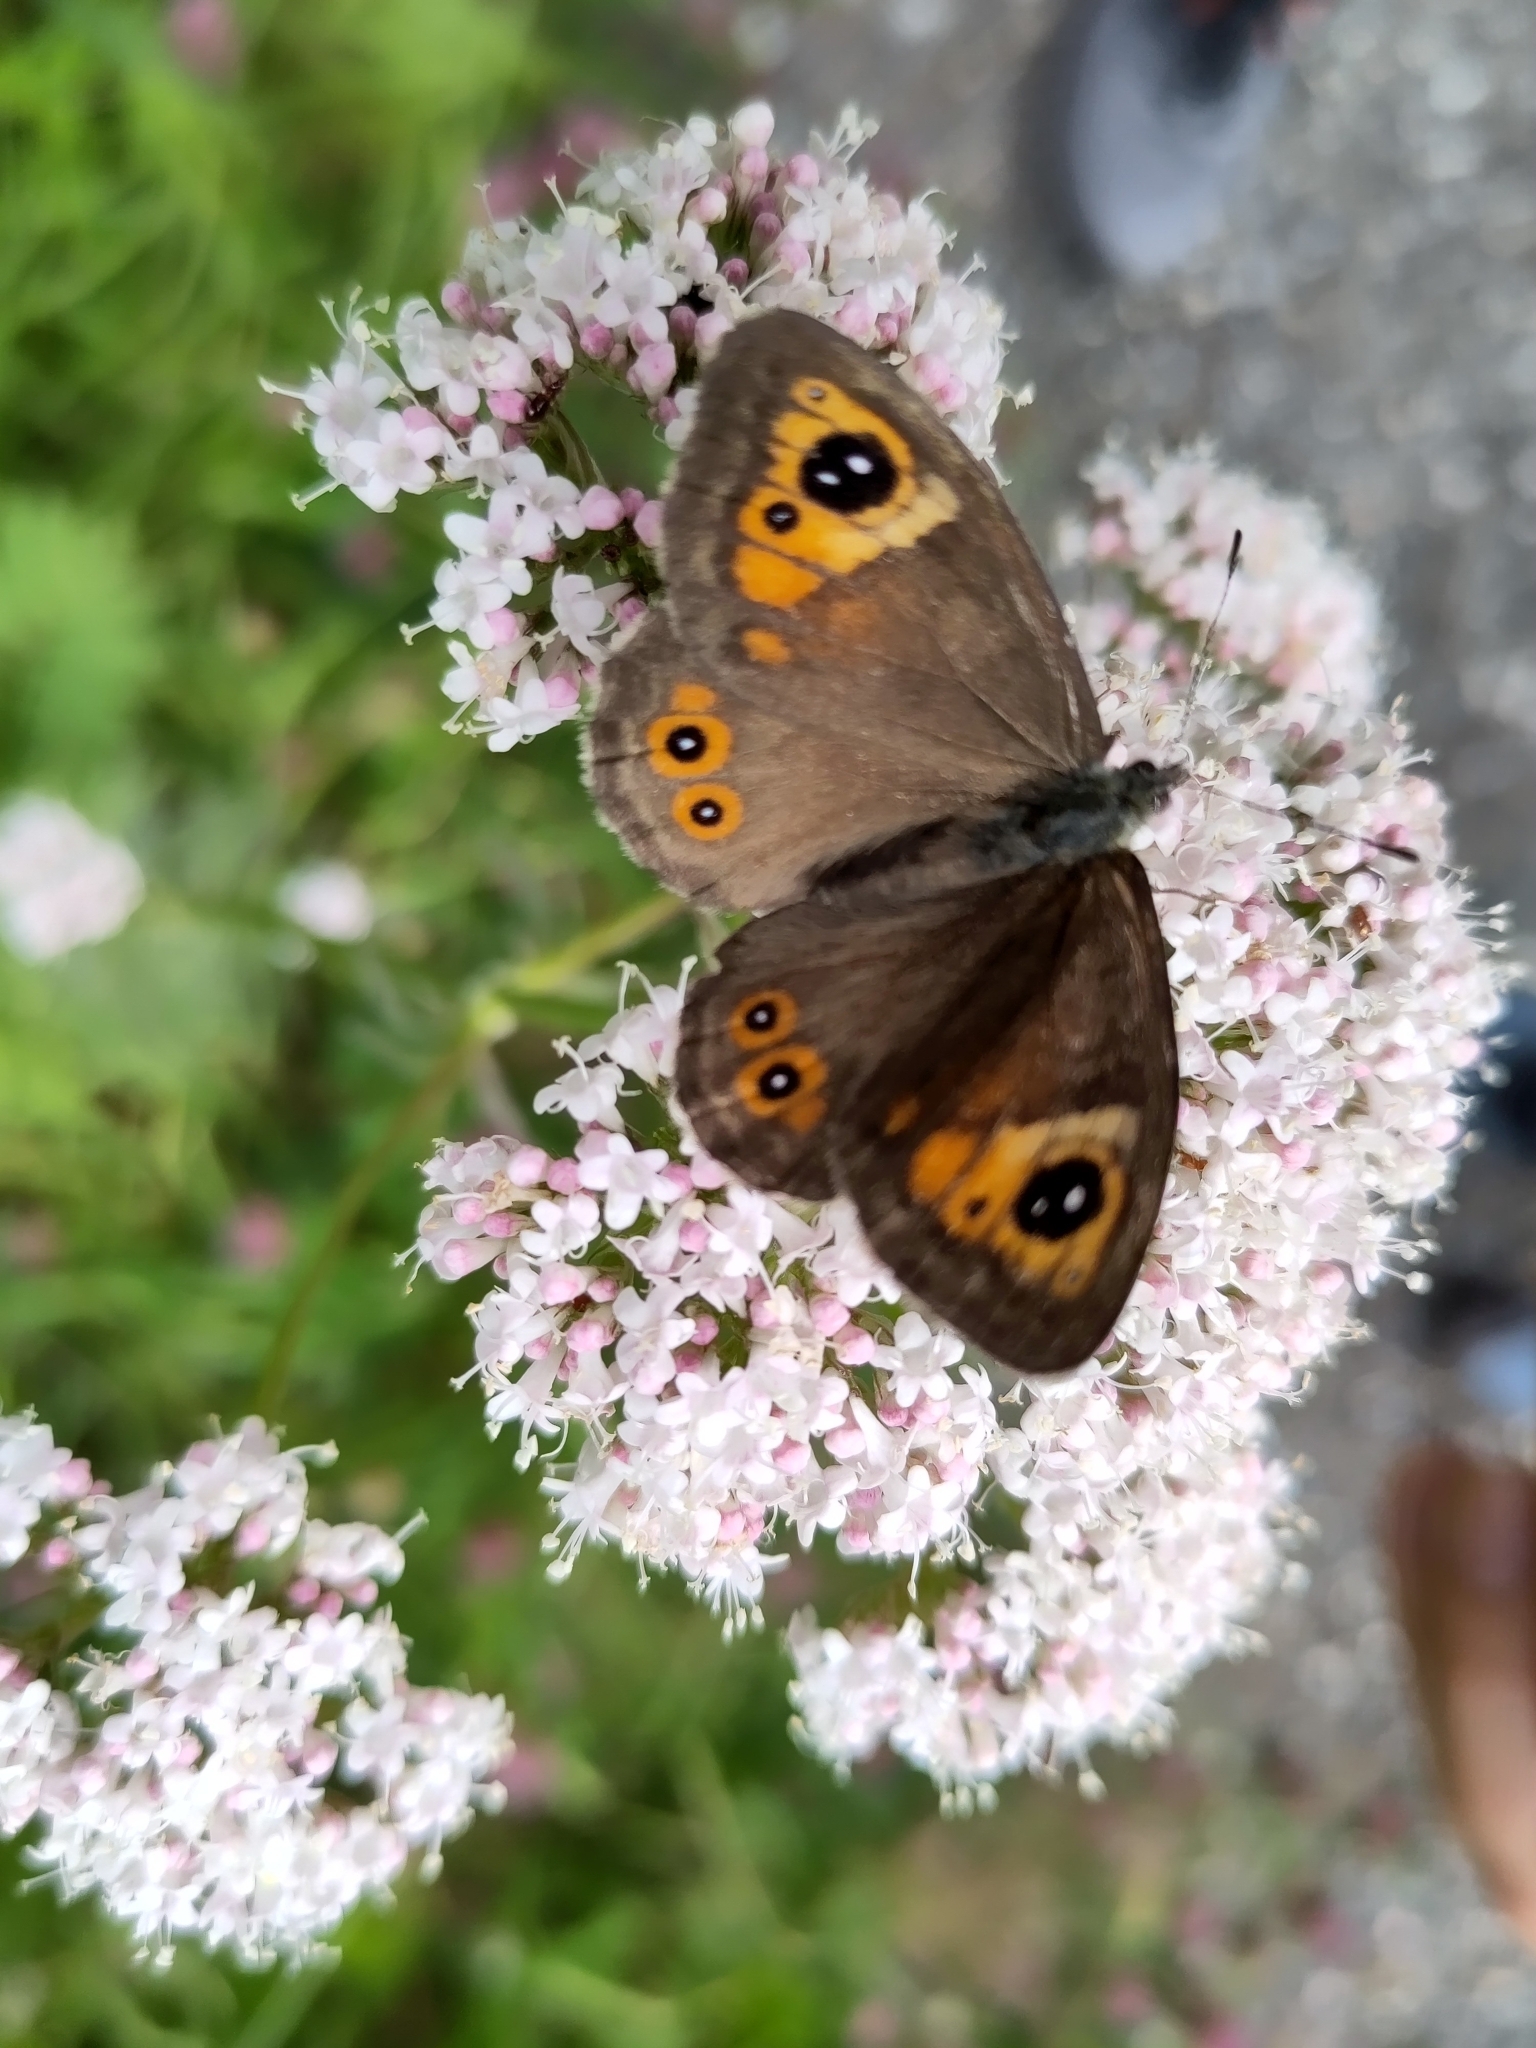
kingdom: Animalia
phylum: Arthropoda
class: Insecta
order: Lepidoptera
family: Nymphalidae
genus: Pararge
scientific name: Pararge Lasiommata maera
